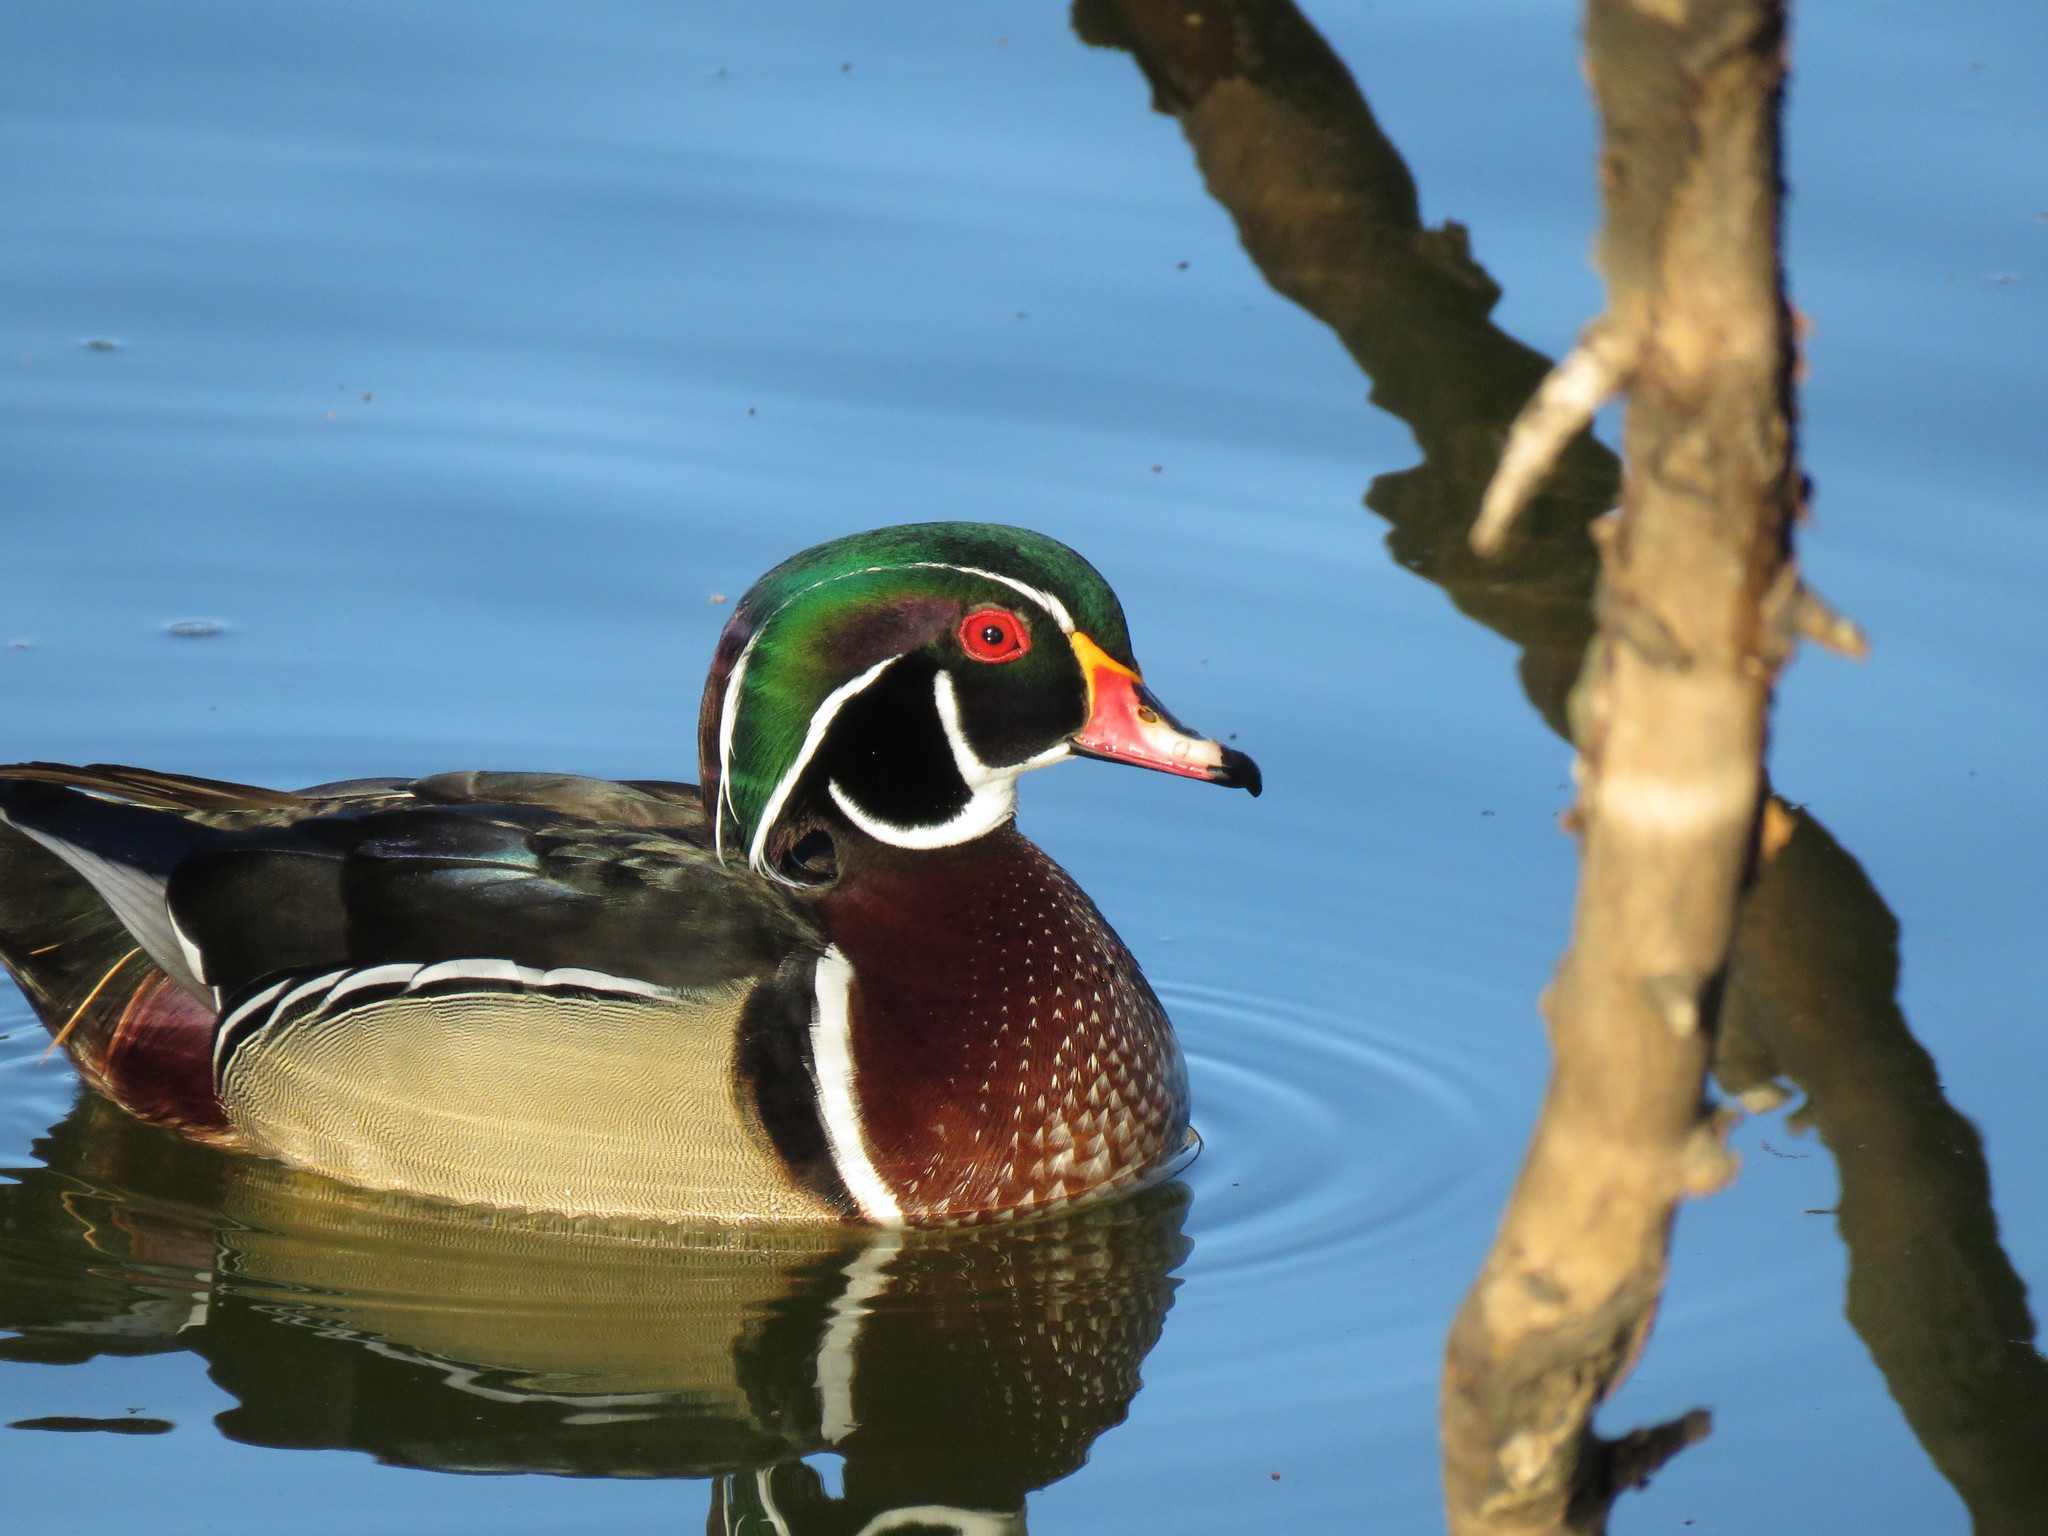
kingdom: Animalia
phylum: Chordata
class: Aves
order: Anseriformes
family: Anatidae
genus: Aix
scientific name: Aix sponsa
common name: Wood duck
